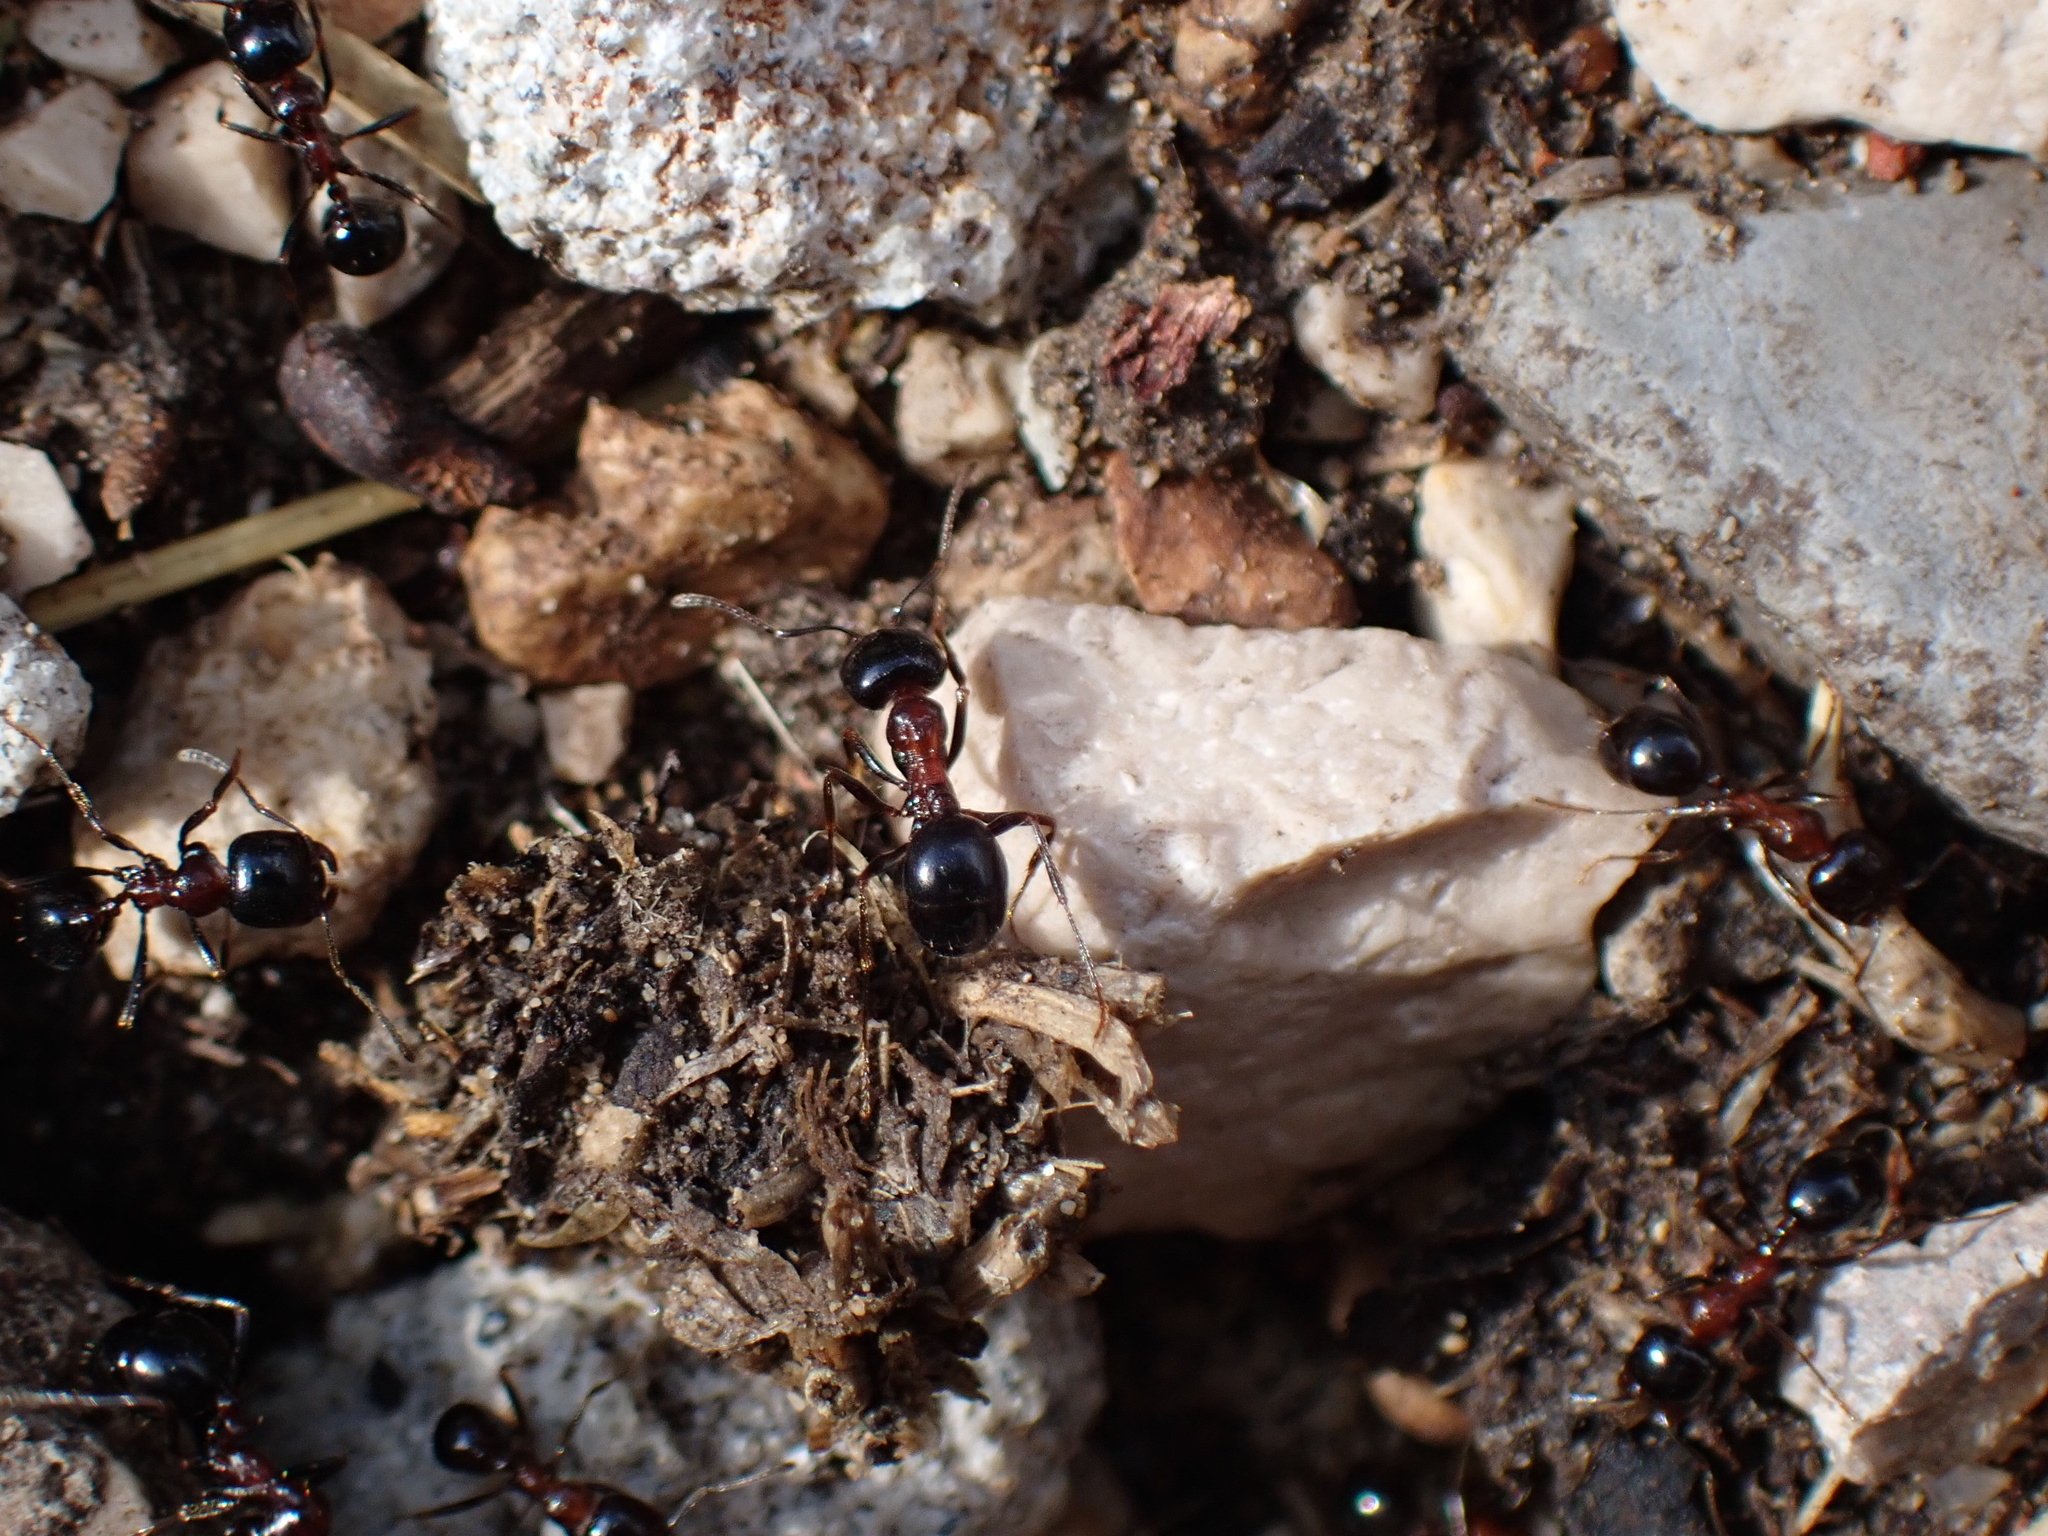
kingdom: Animalia
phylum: Arthropoda
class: Insecta
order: Hymenoptera
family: Formicidae
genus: Messor
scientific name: Messor wasmanni
